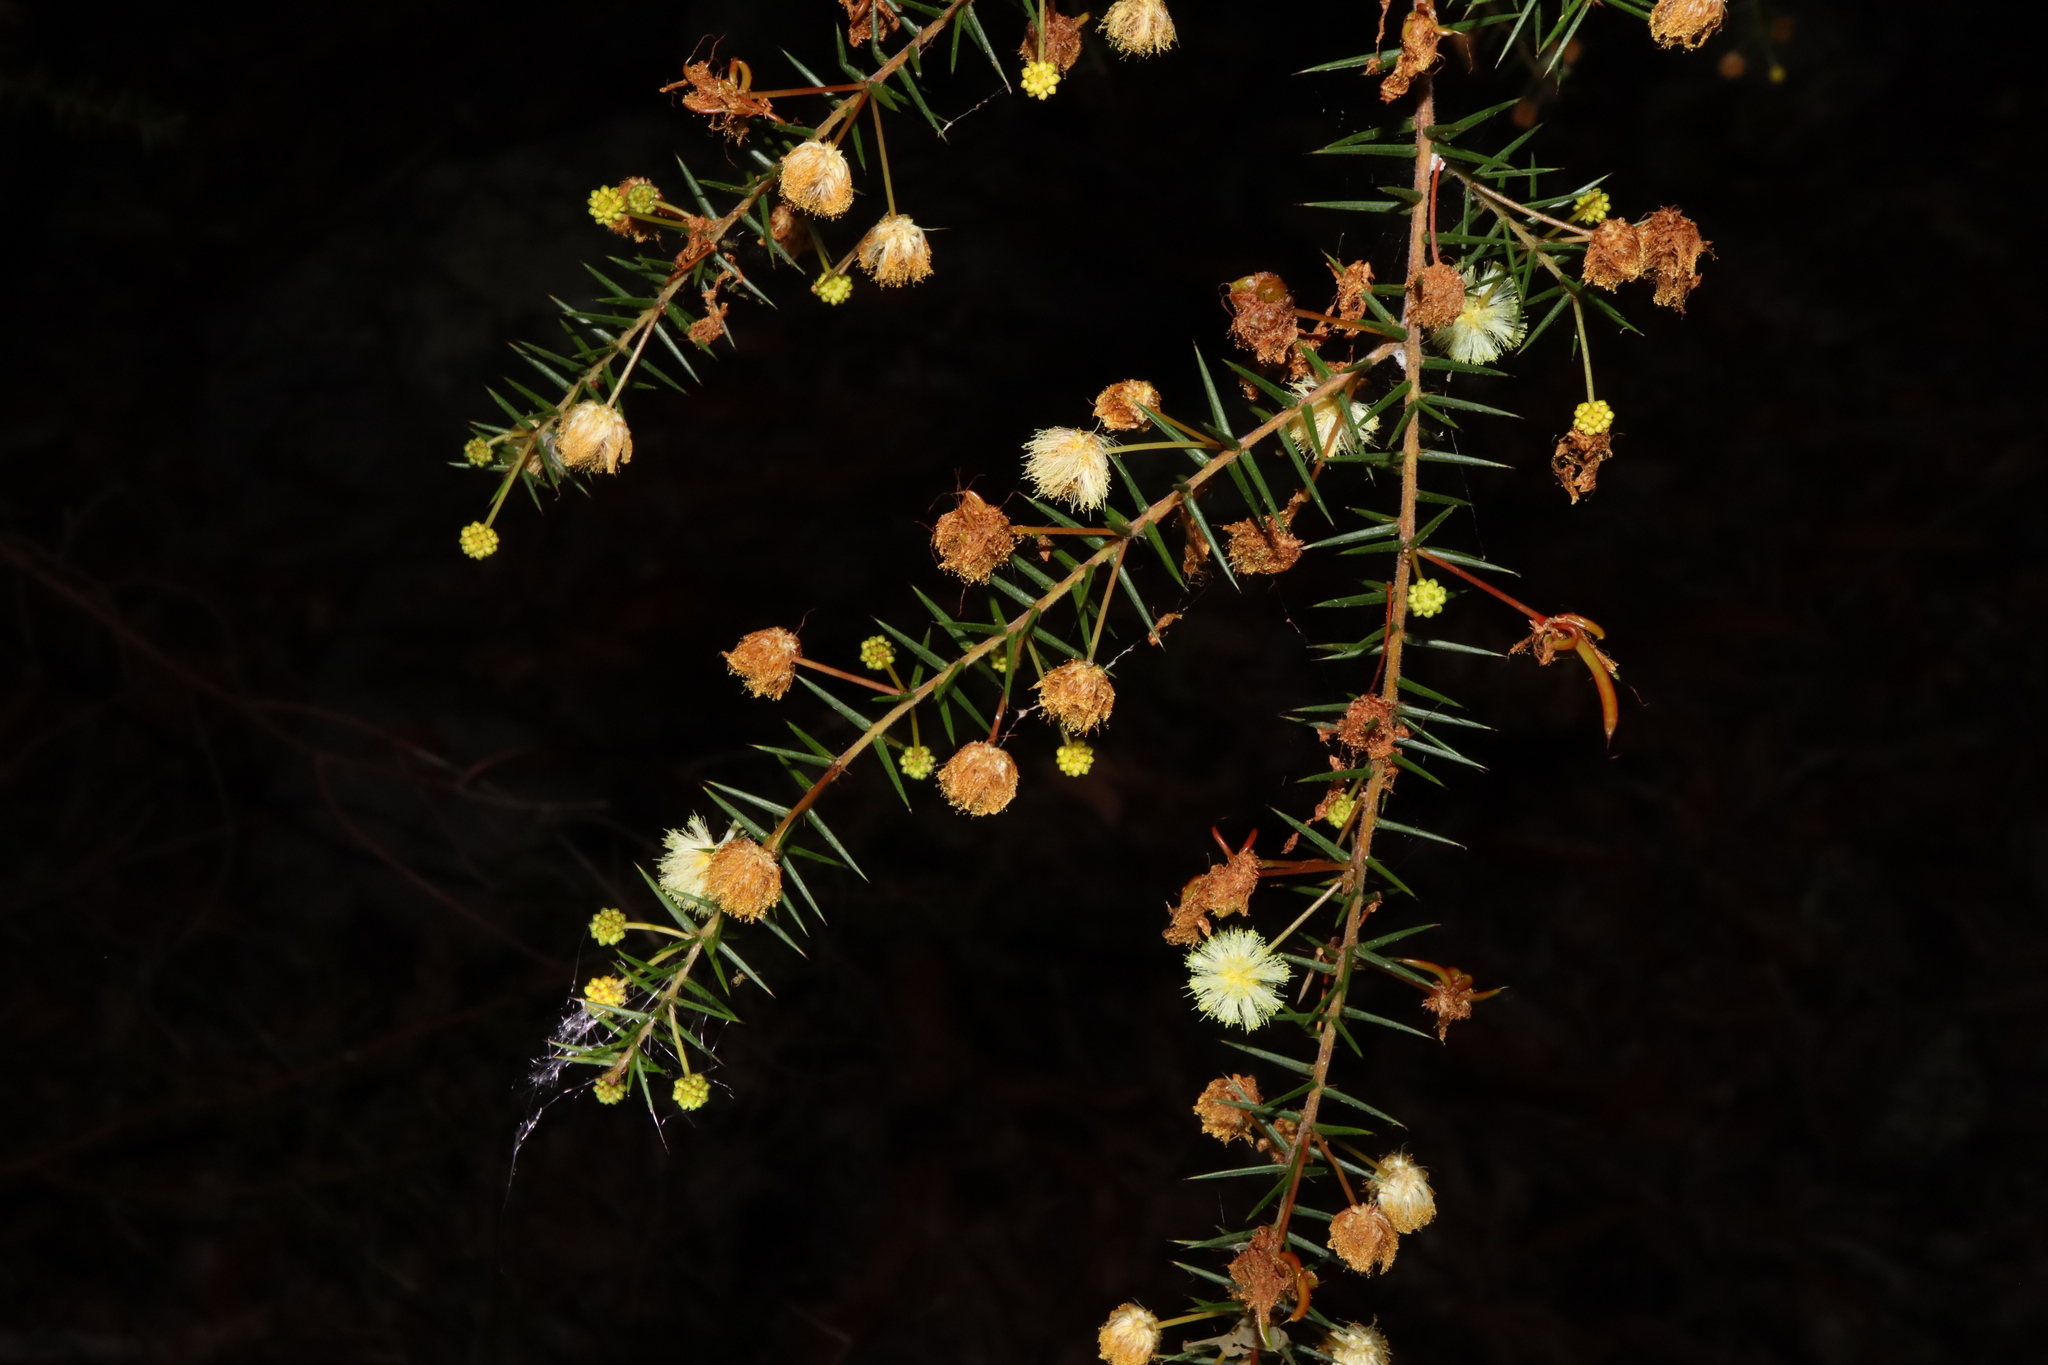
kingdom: Plantae
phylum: Tracheophyta
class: Magnoliopsida
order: Fabales
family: Fabaceae
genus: Acacia
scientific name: Acacia ulicifolia
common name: Juniper wattle
